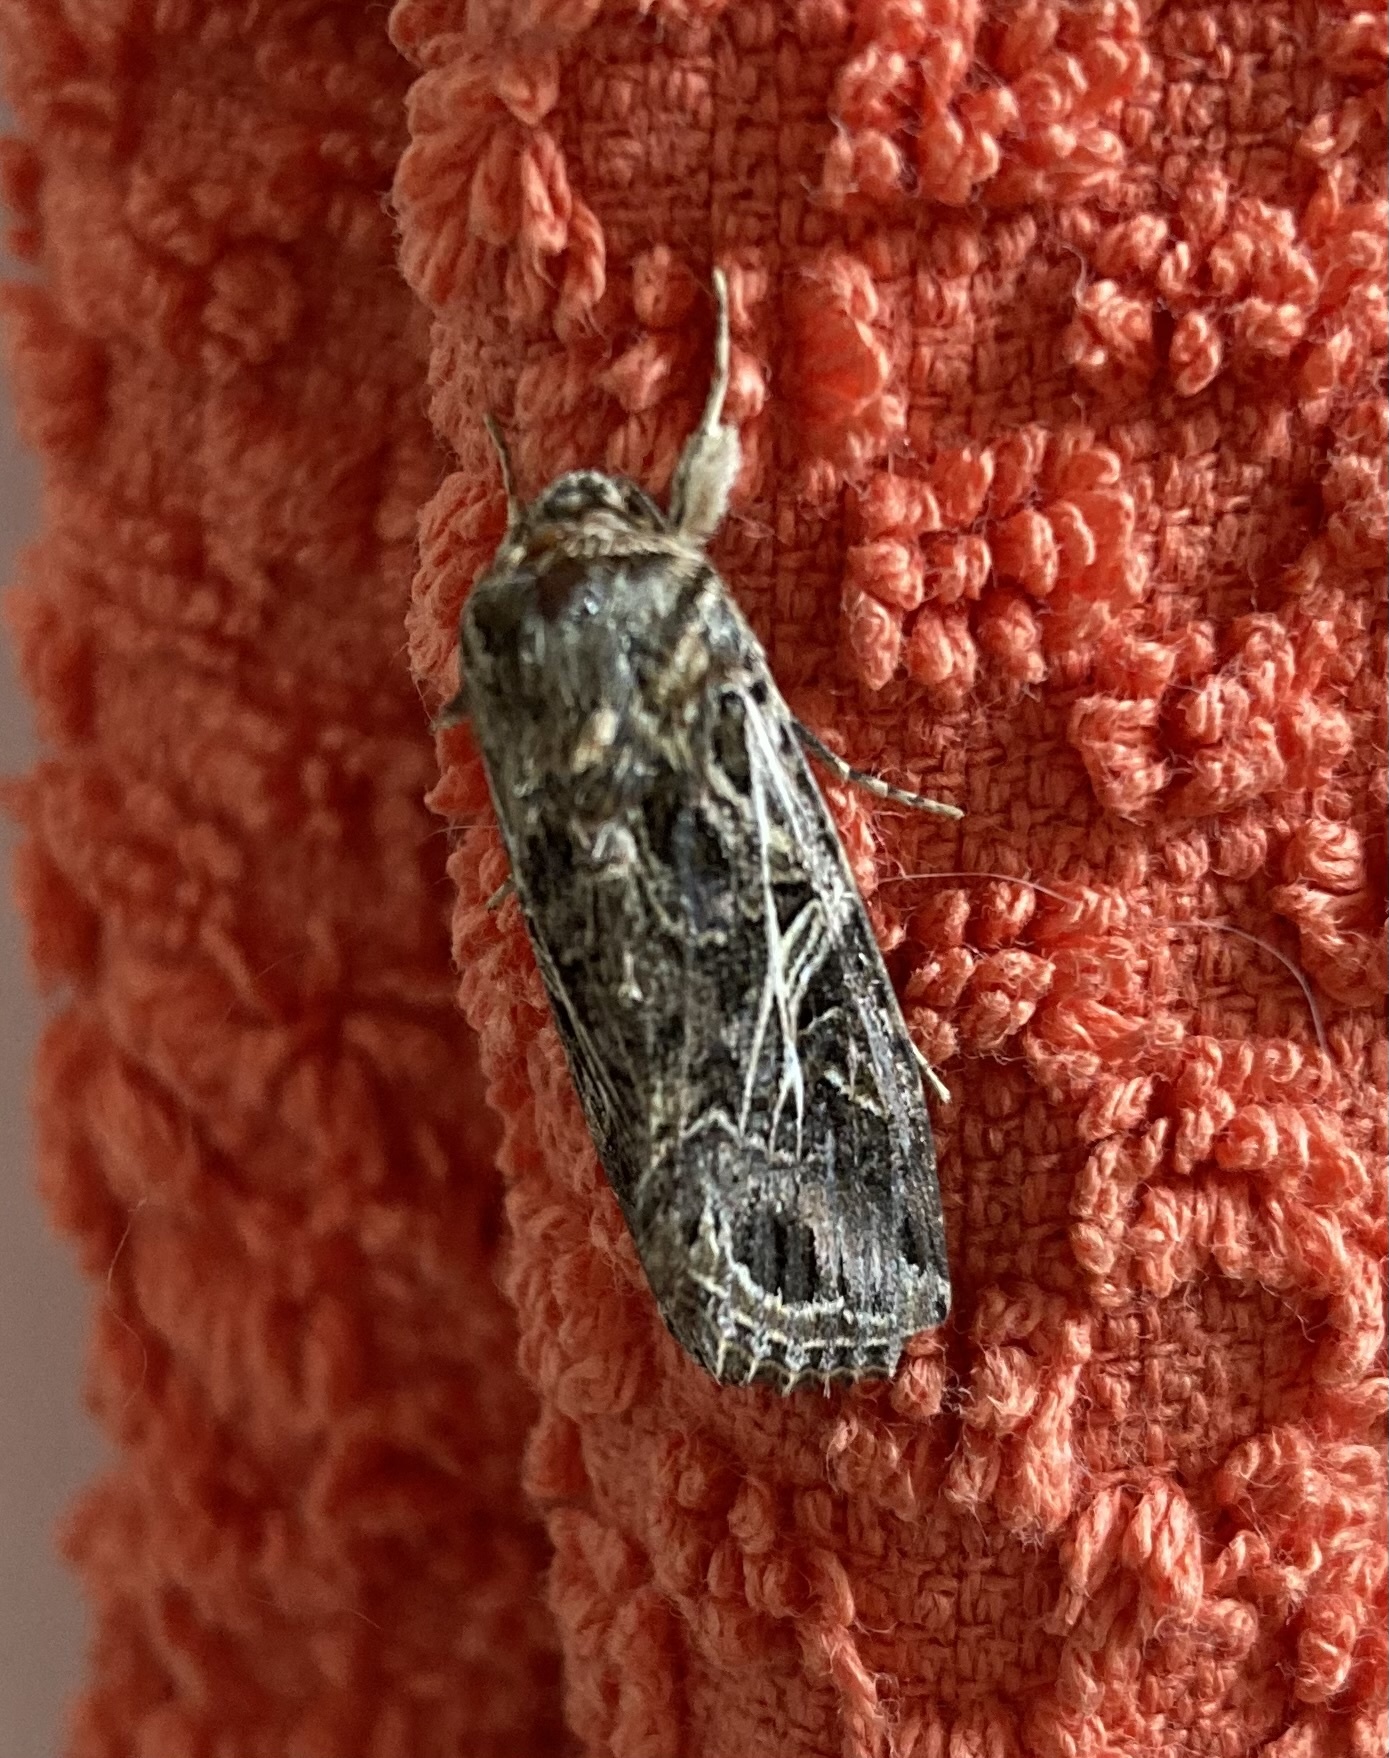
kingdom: Animalia
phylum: Arthropoda
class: Insecta
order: Lepidoptera
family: Noctuidae
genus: Spodoptera
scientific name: Spodoptera litura
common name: Asian cotton leafworm
